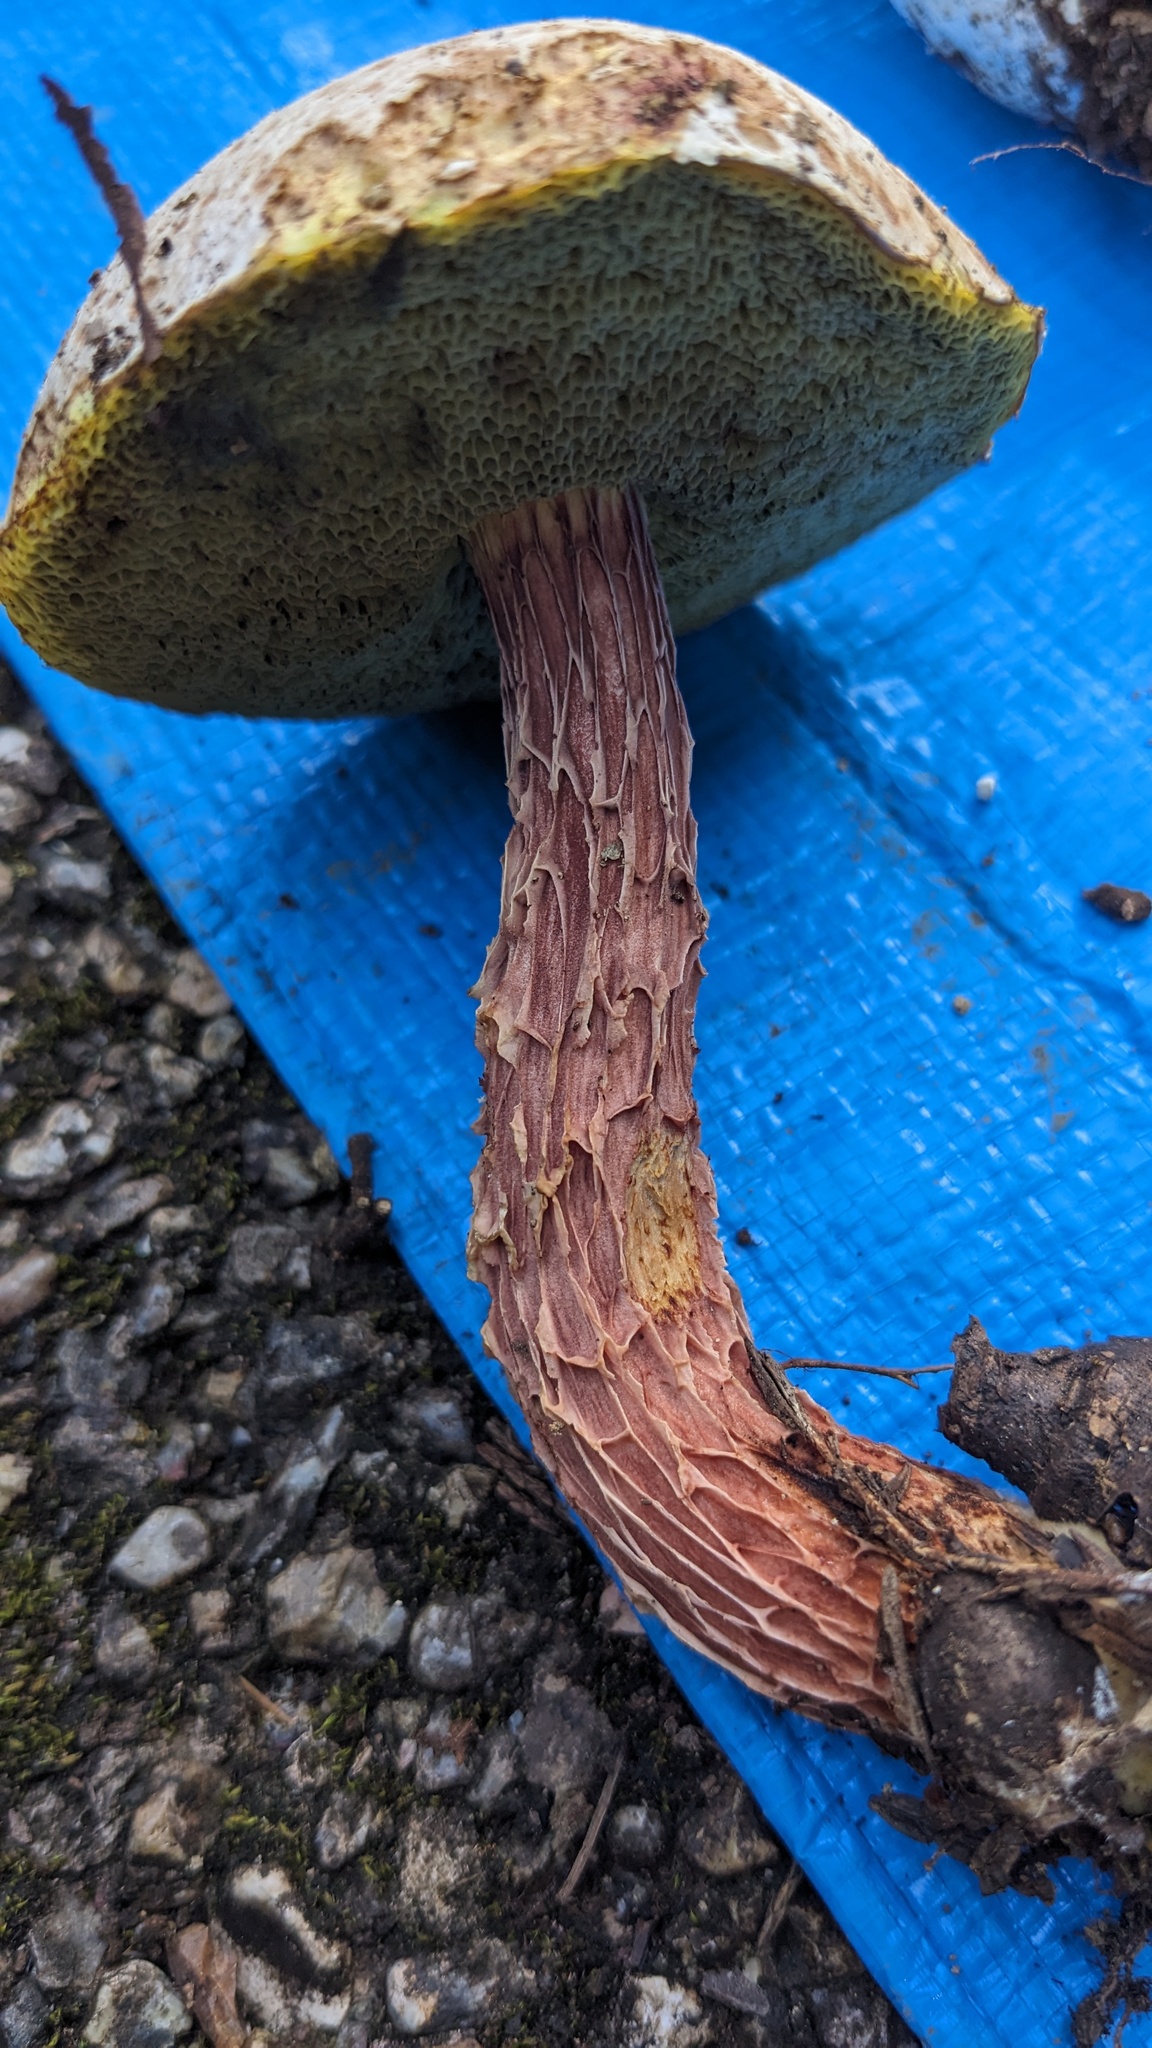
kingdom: Fungi
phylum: Basidiomycota
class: Agaricomycetes
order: Boletales
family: Boletaceae
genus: Aureoboletus
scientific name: Aureoboletus russellii
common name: Russell's bolete
